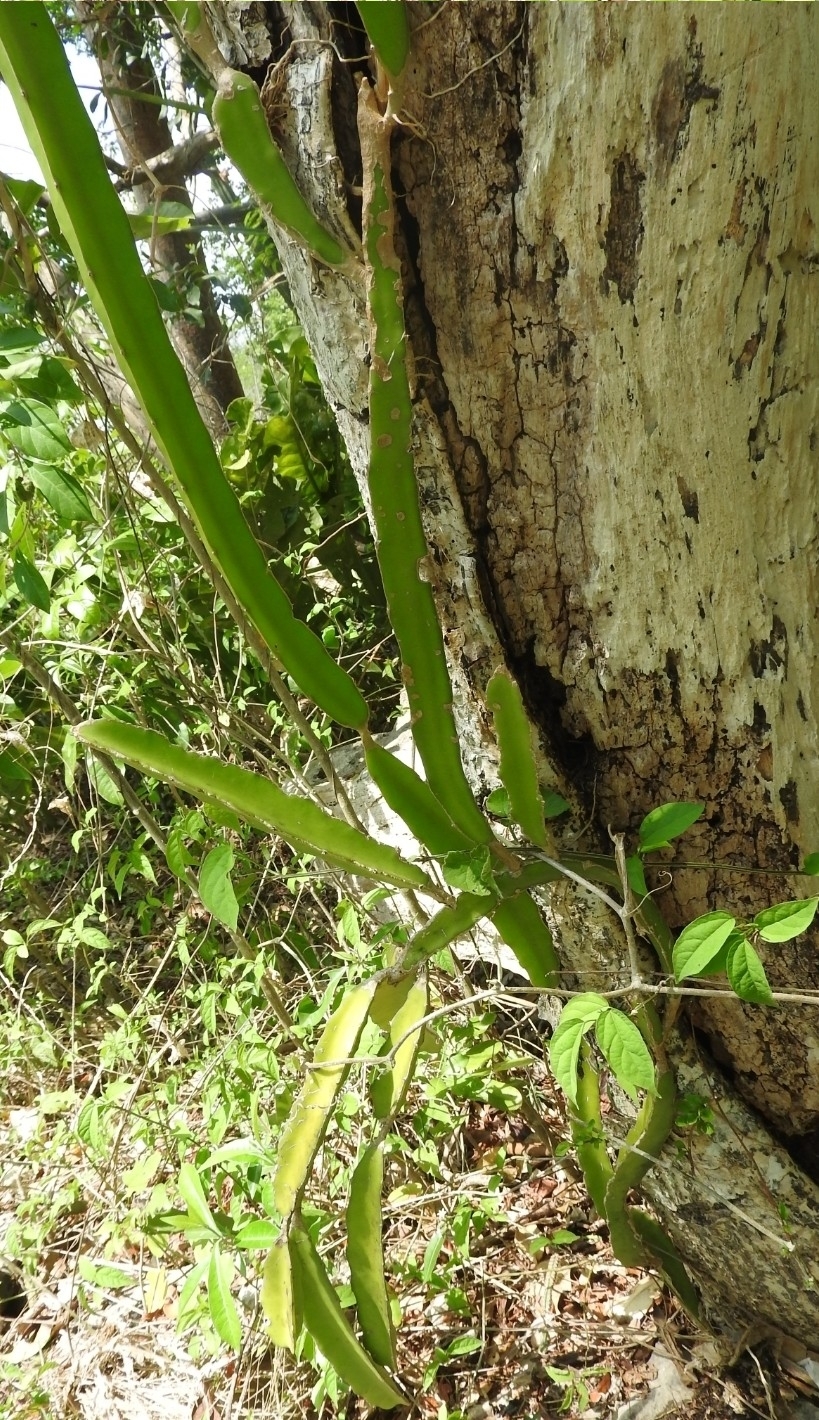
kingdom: Plantae
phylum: Tracheophyta
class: Magnoliopsida
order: Caryophyllales
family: Cactaceae
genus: Acanthocereus
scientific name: Acanthocereus tetragonus
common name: Triangle cactus
